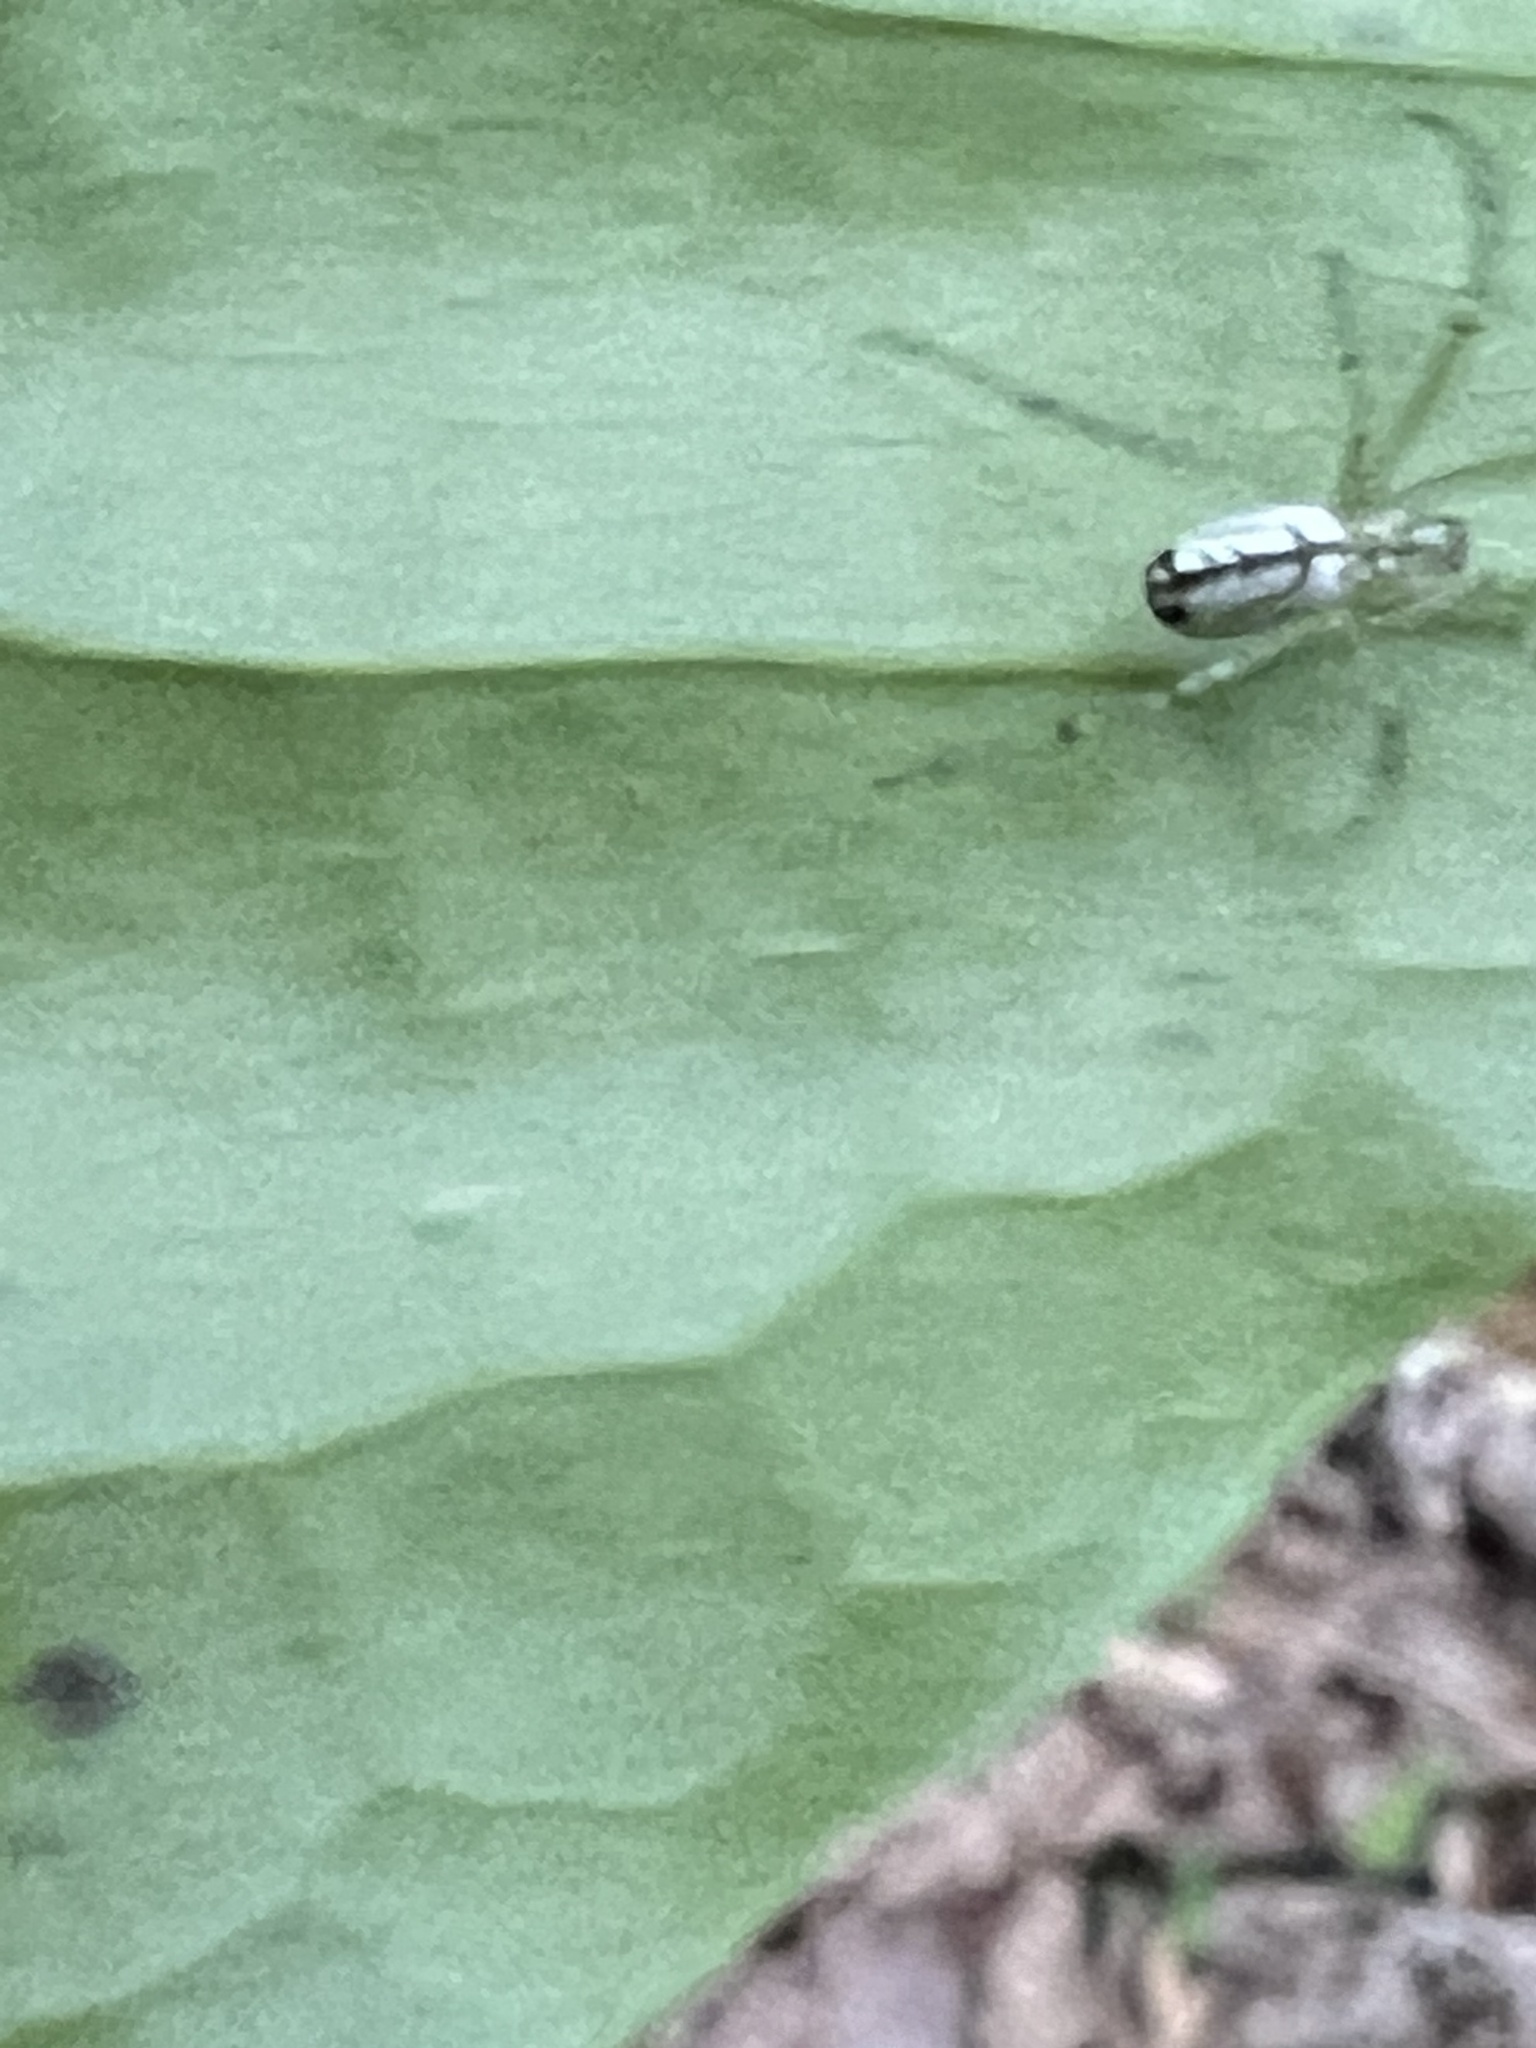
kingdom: Animalia
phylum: Arthropoda
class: Arachnida
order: Araneae
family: Tetragnathidae
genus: Leucauge
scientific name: Leucauge venusta
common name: Longjawed orb weavers
